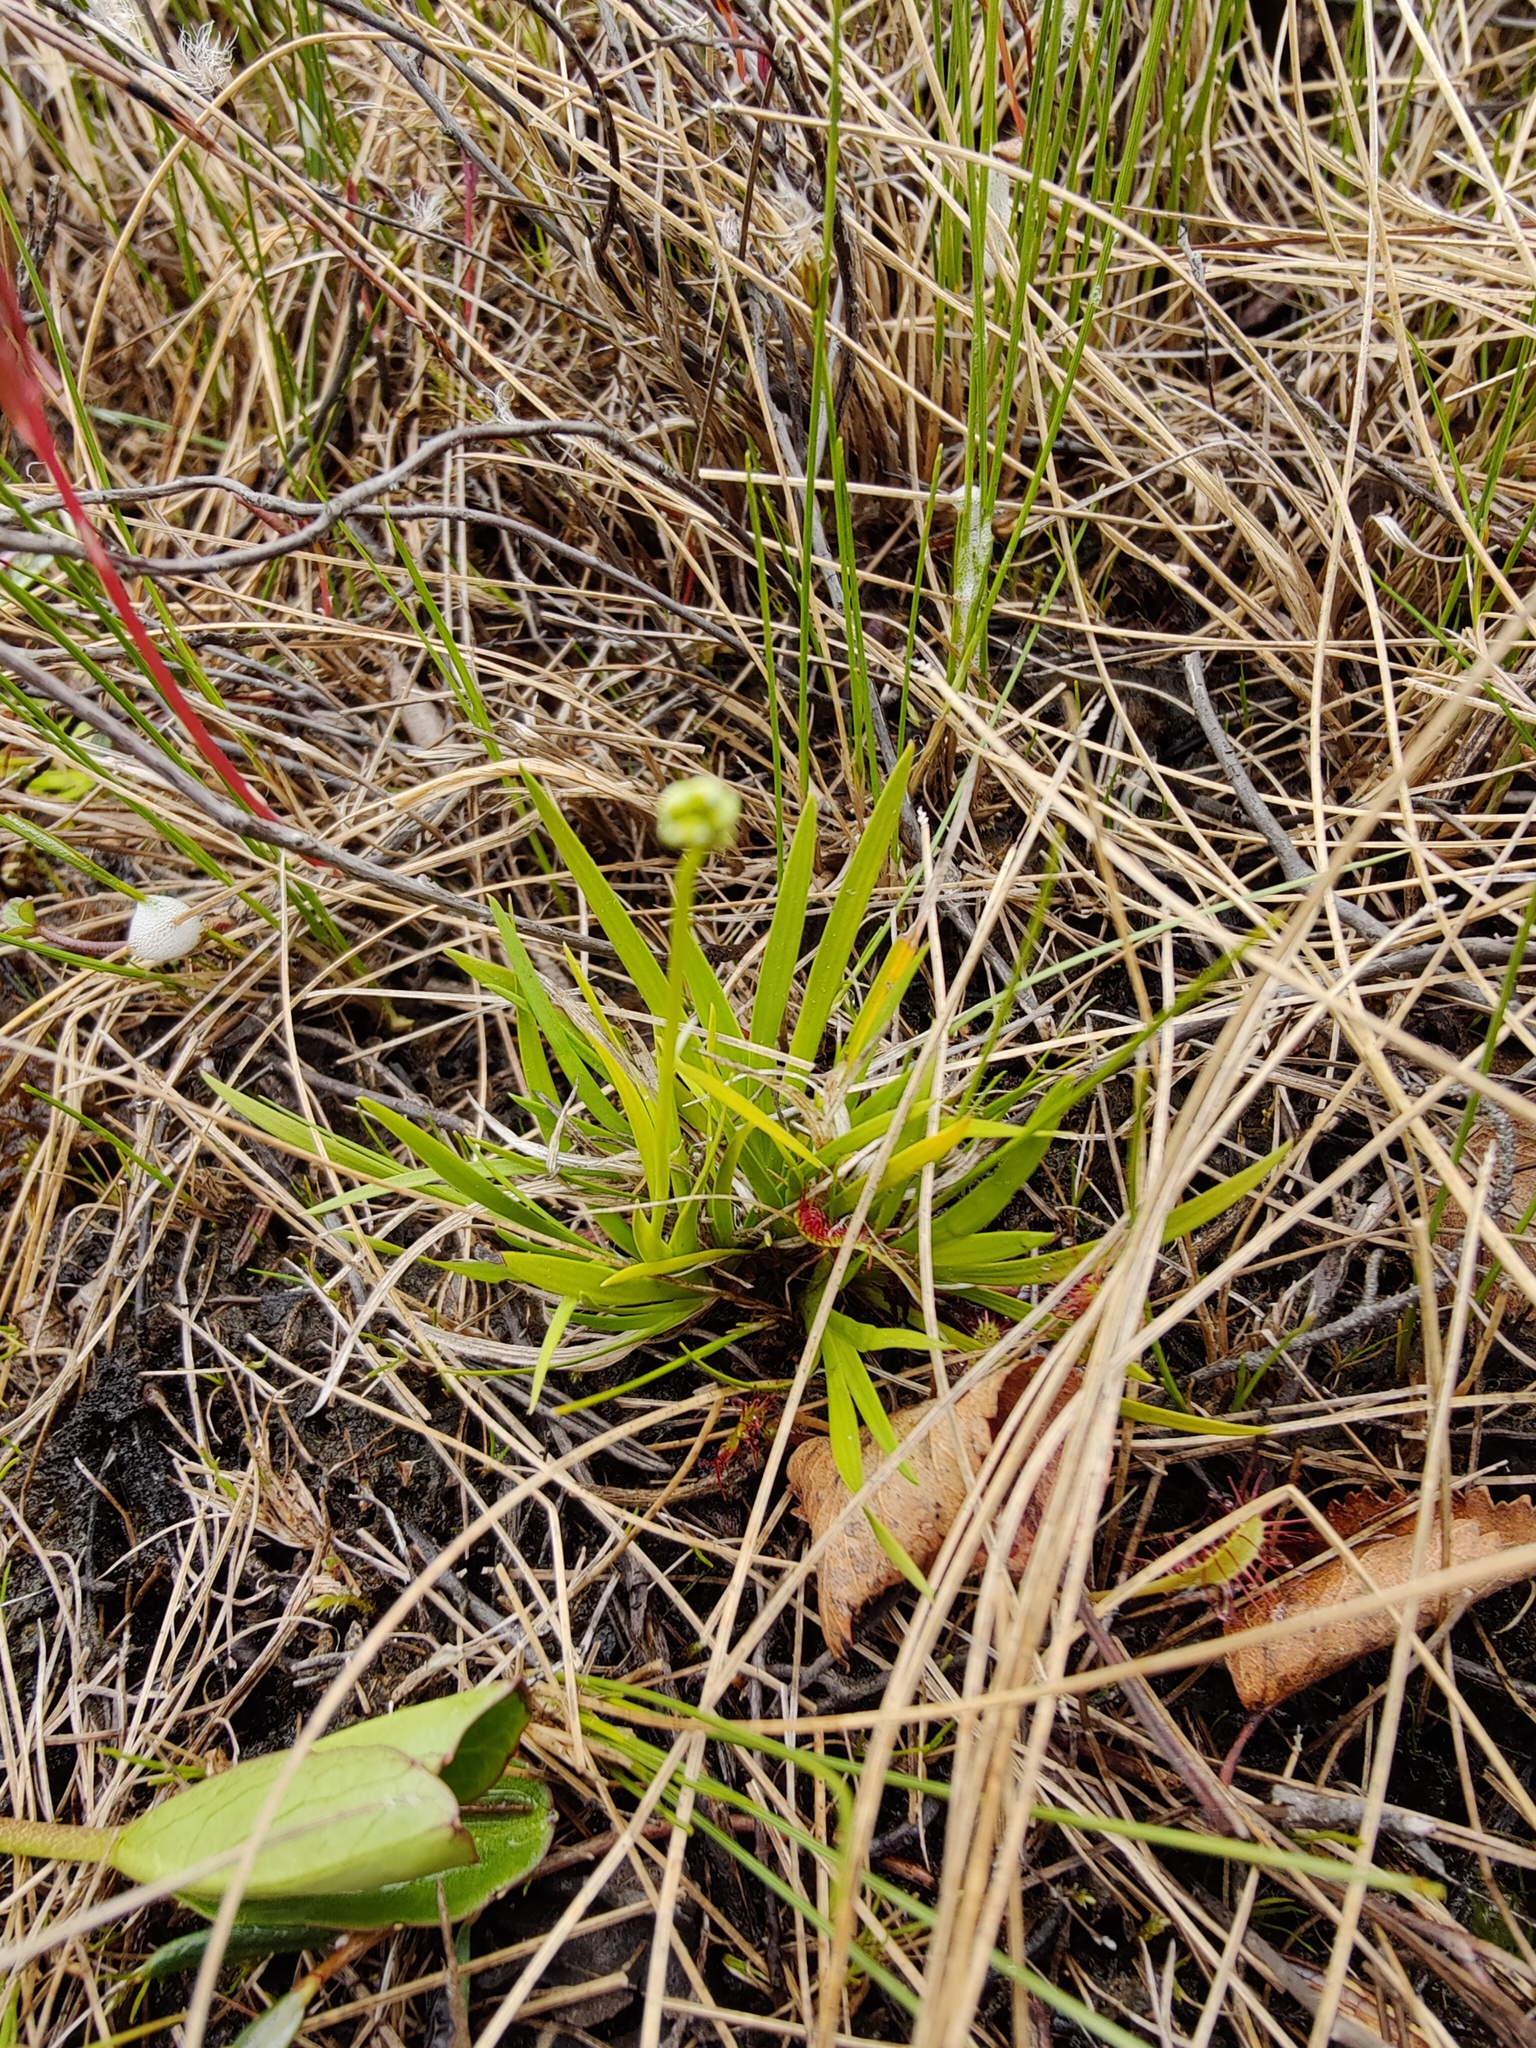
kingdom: Plantae
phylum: Tracheophyta
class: Liliopsida
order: Alismatales
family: Tofieldiaceae
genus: Tofieldia
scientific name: Tofieldia pusilla
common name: Scottish false asphodel
